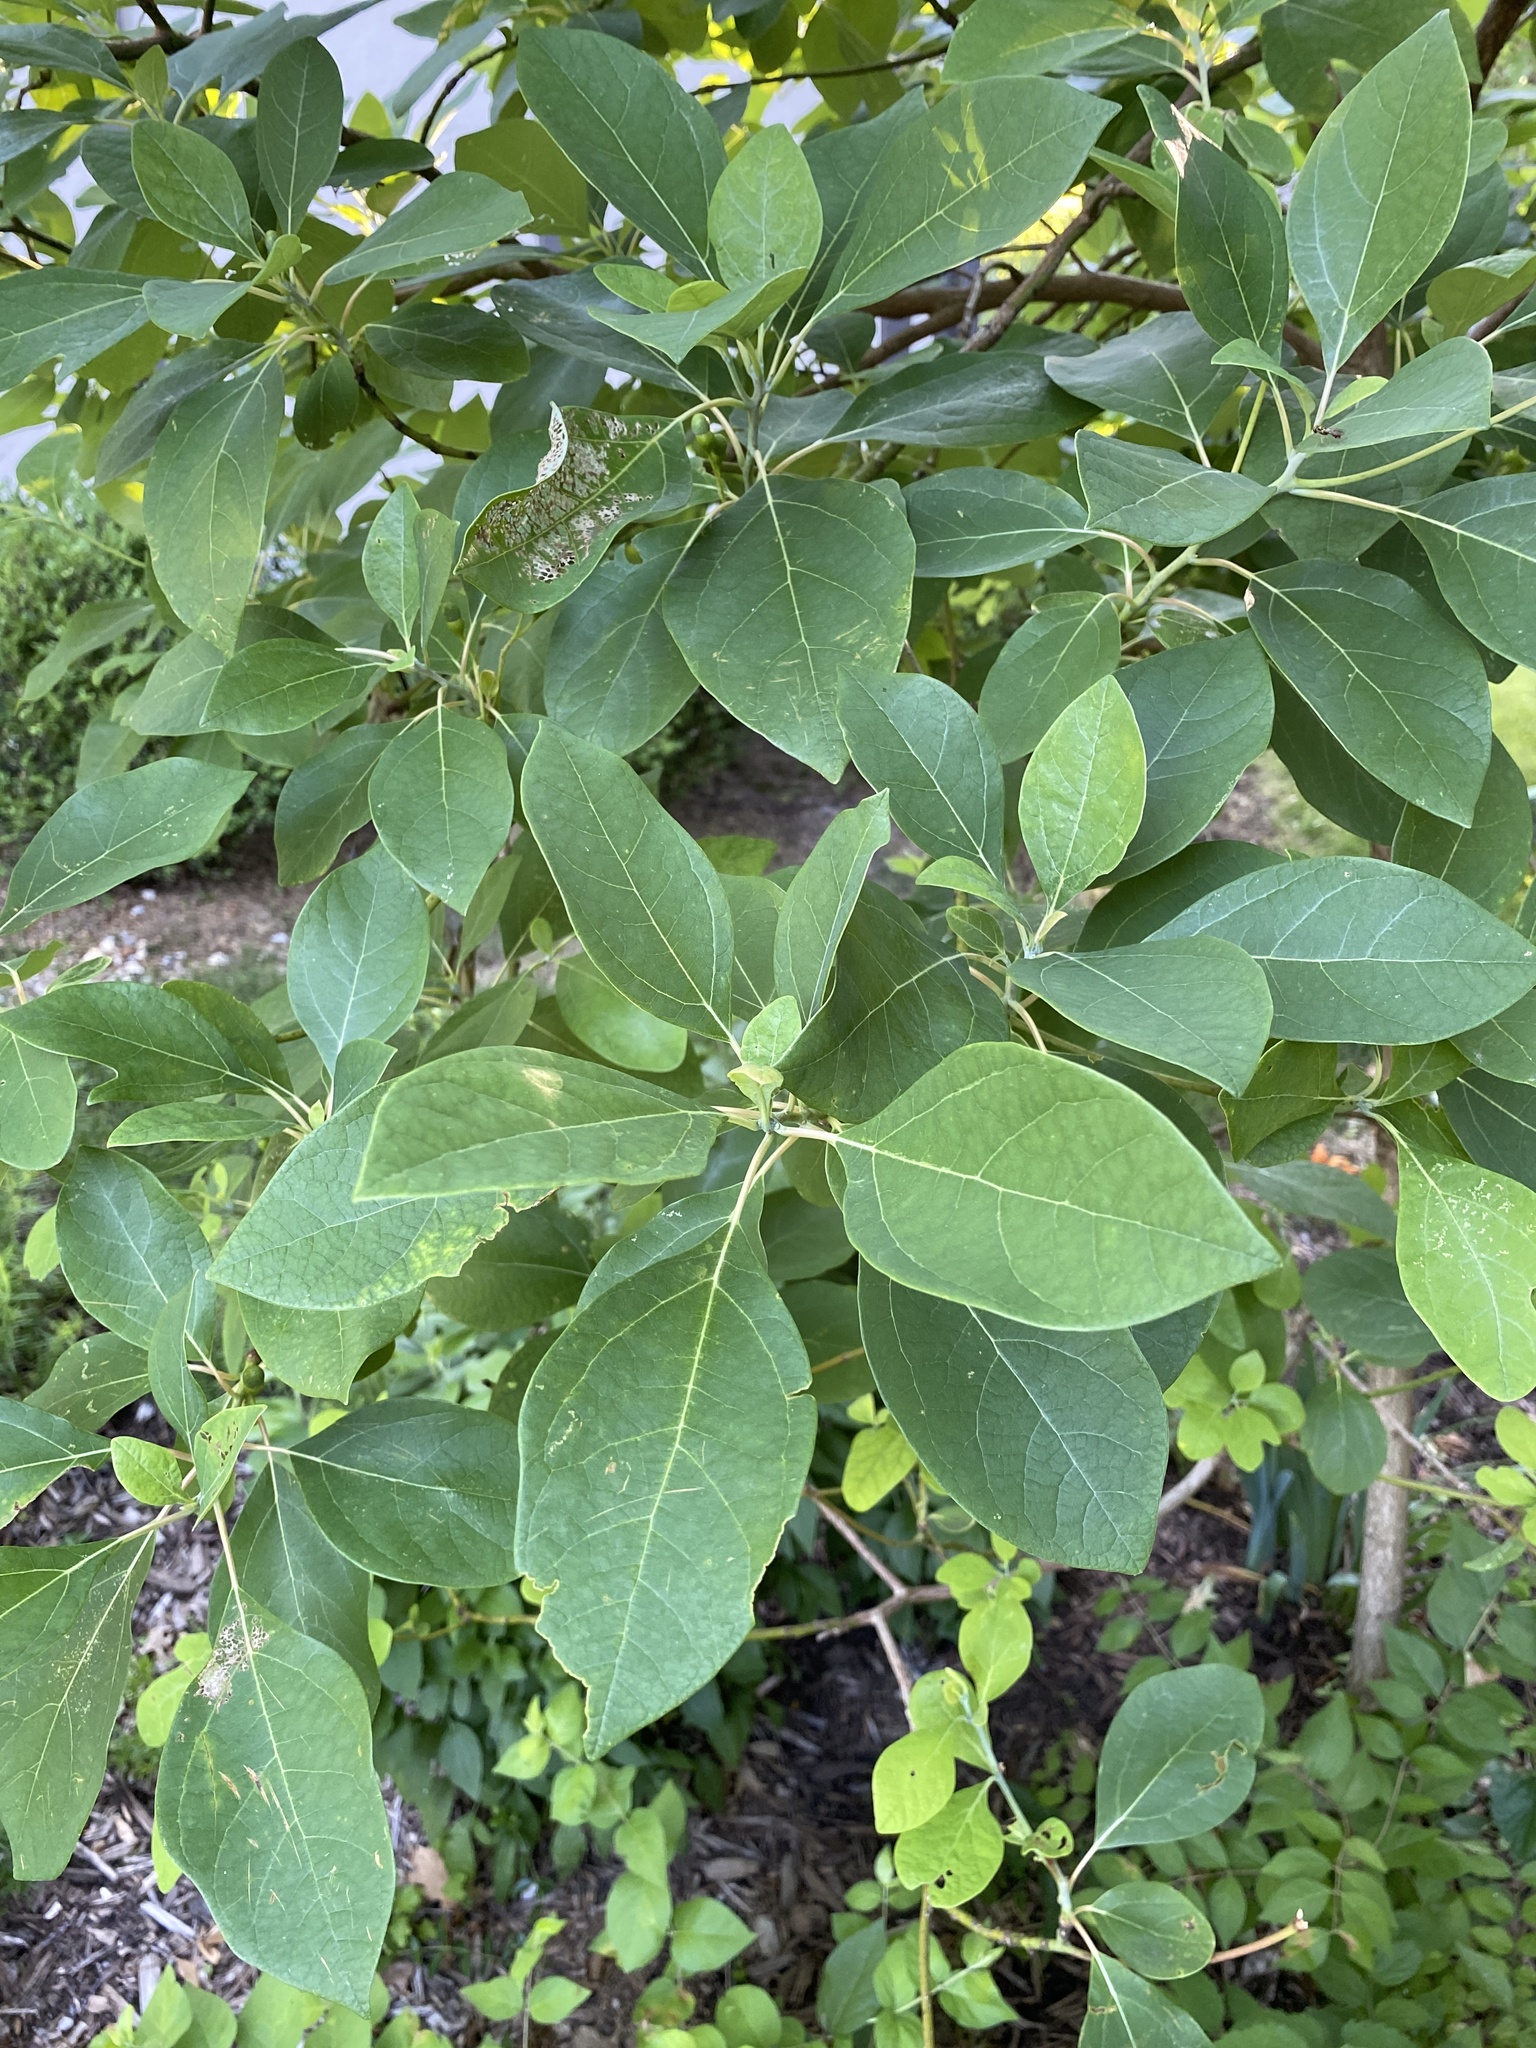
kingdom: Plantae
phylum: Tracheophyta
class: Magnoliopsida
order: Laurales
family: Lauraceae
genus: Sassafras
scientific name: Sassafras albidum
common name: Sassafras
